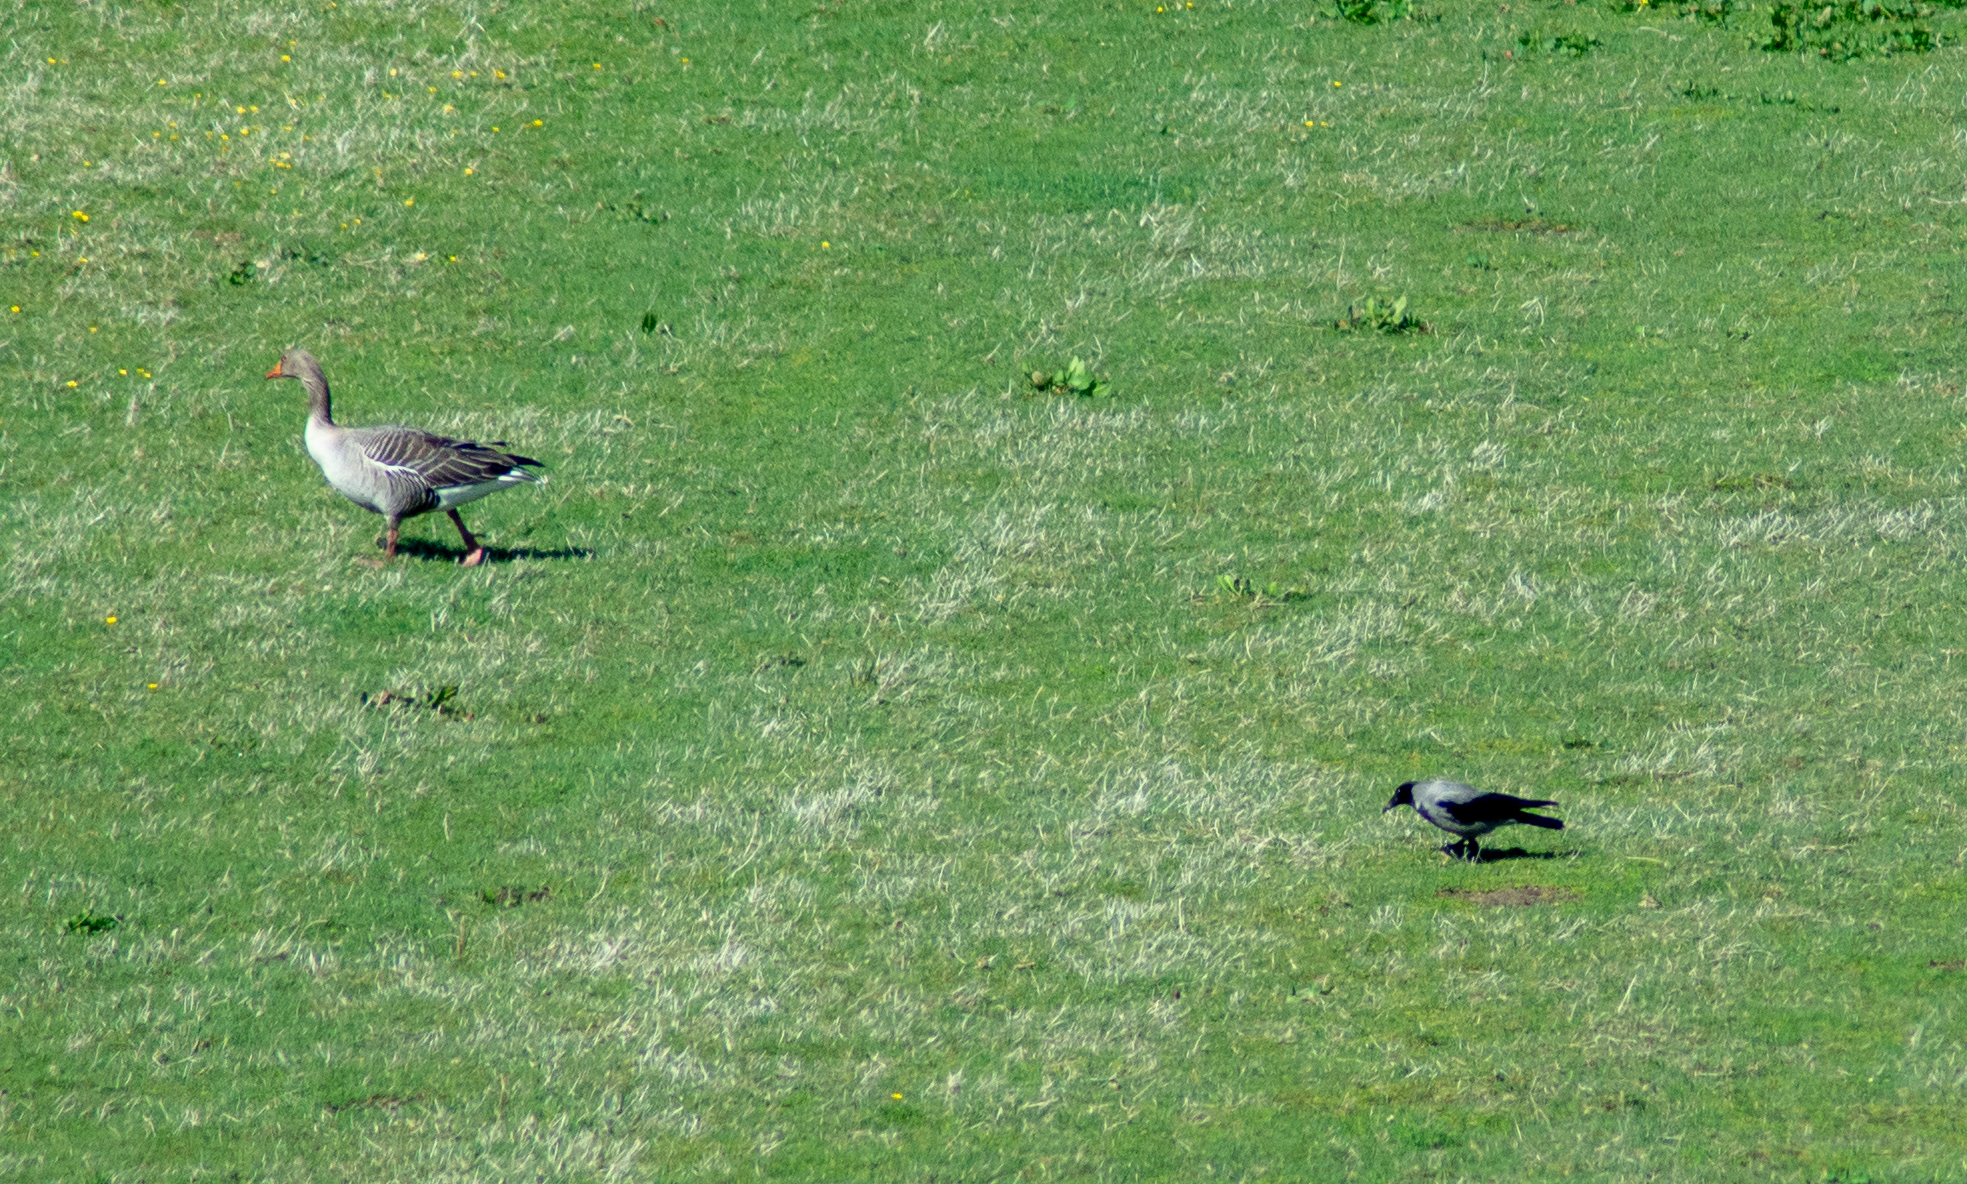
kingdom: Animalia
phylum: Chordata
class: Aves
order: Passeriformes
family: Corvidae
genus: Corvus
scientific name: Corvus cornix
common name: Hooded crow
